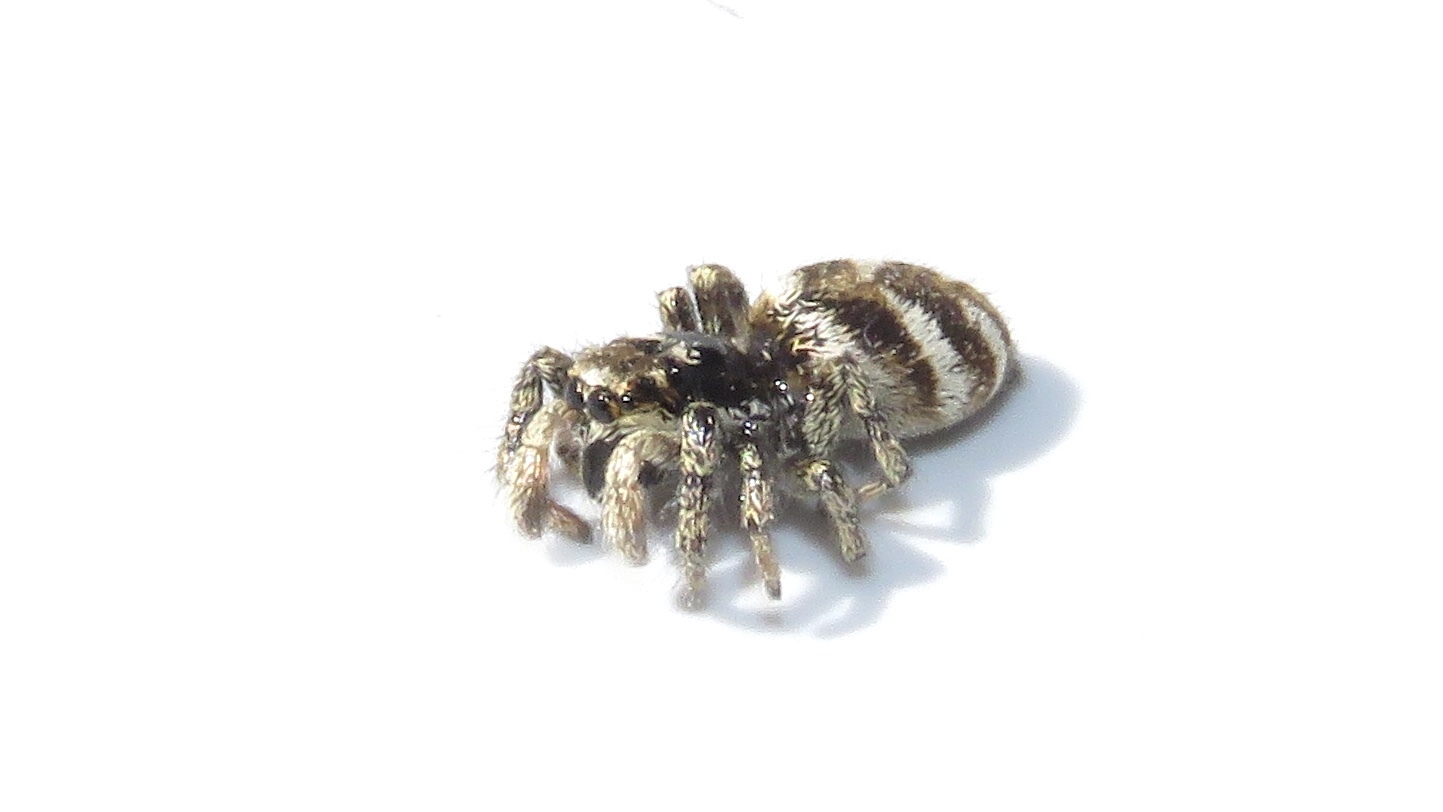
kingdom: Animalia
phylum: Arthropoda
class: Arachnida
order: Araneae
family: Salticidae
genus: Salticus
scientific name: Salticus scenicus
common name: Zebra jumper
